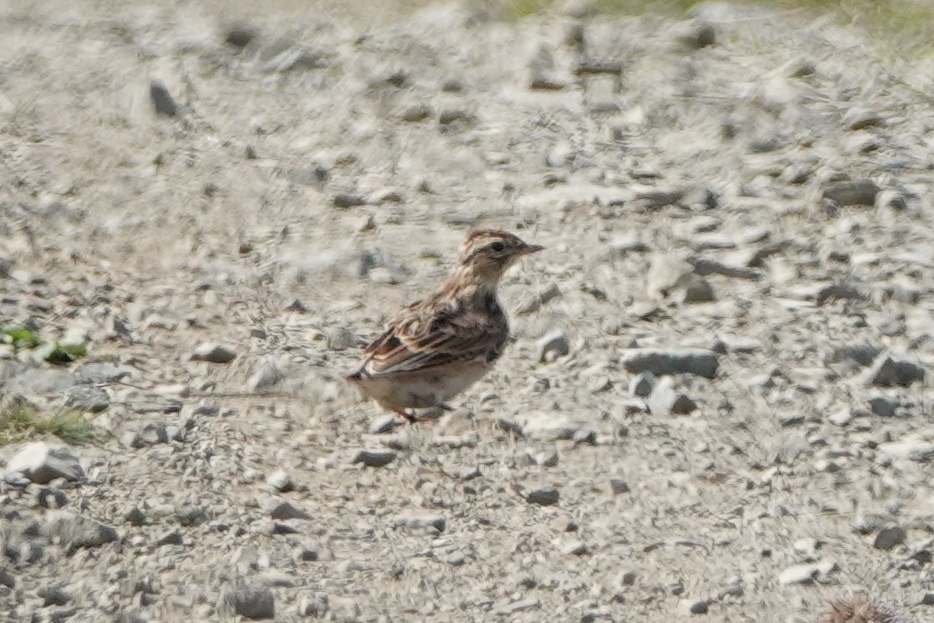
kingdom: Animalia
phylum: Chordata
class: Aves
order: Passeriformes
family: Alaudidae
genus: Alauda
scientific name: Alauda arvensis
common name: Eurasian skylark
